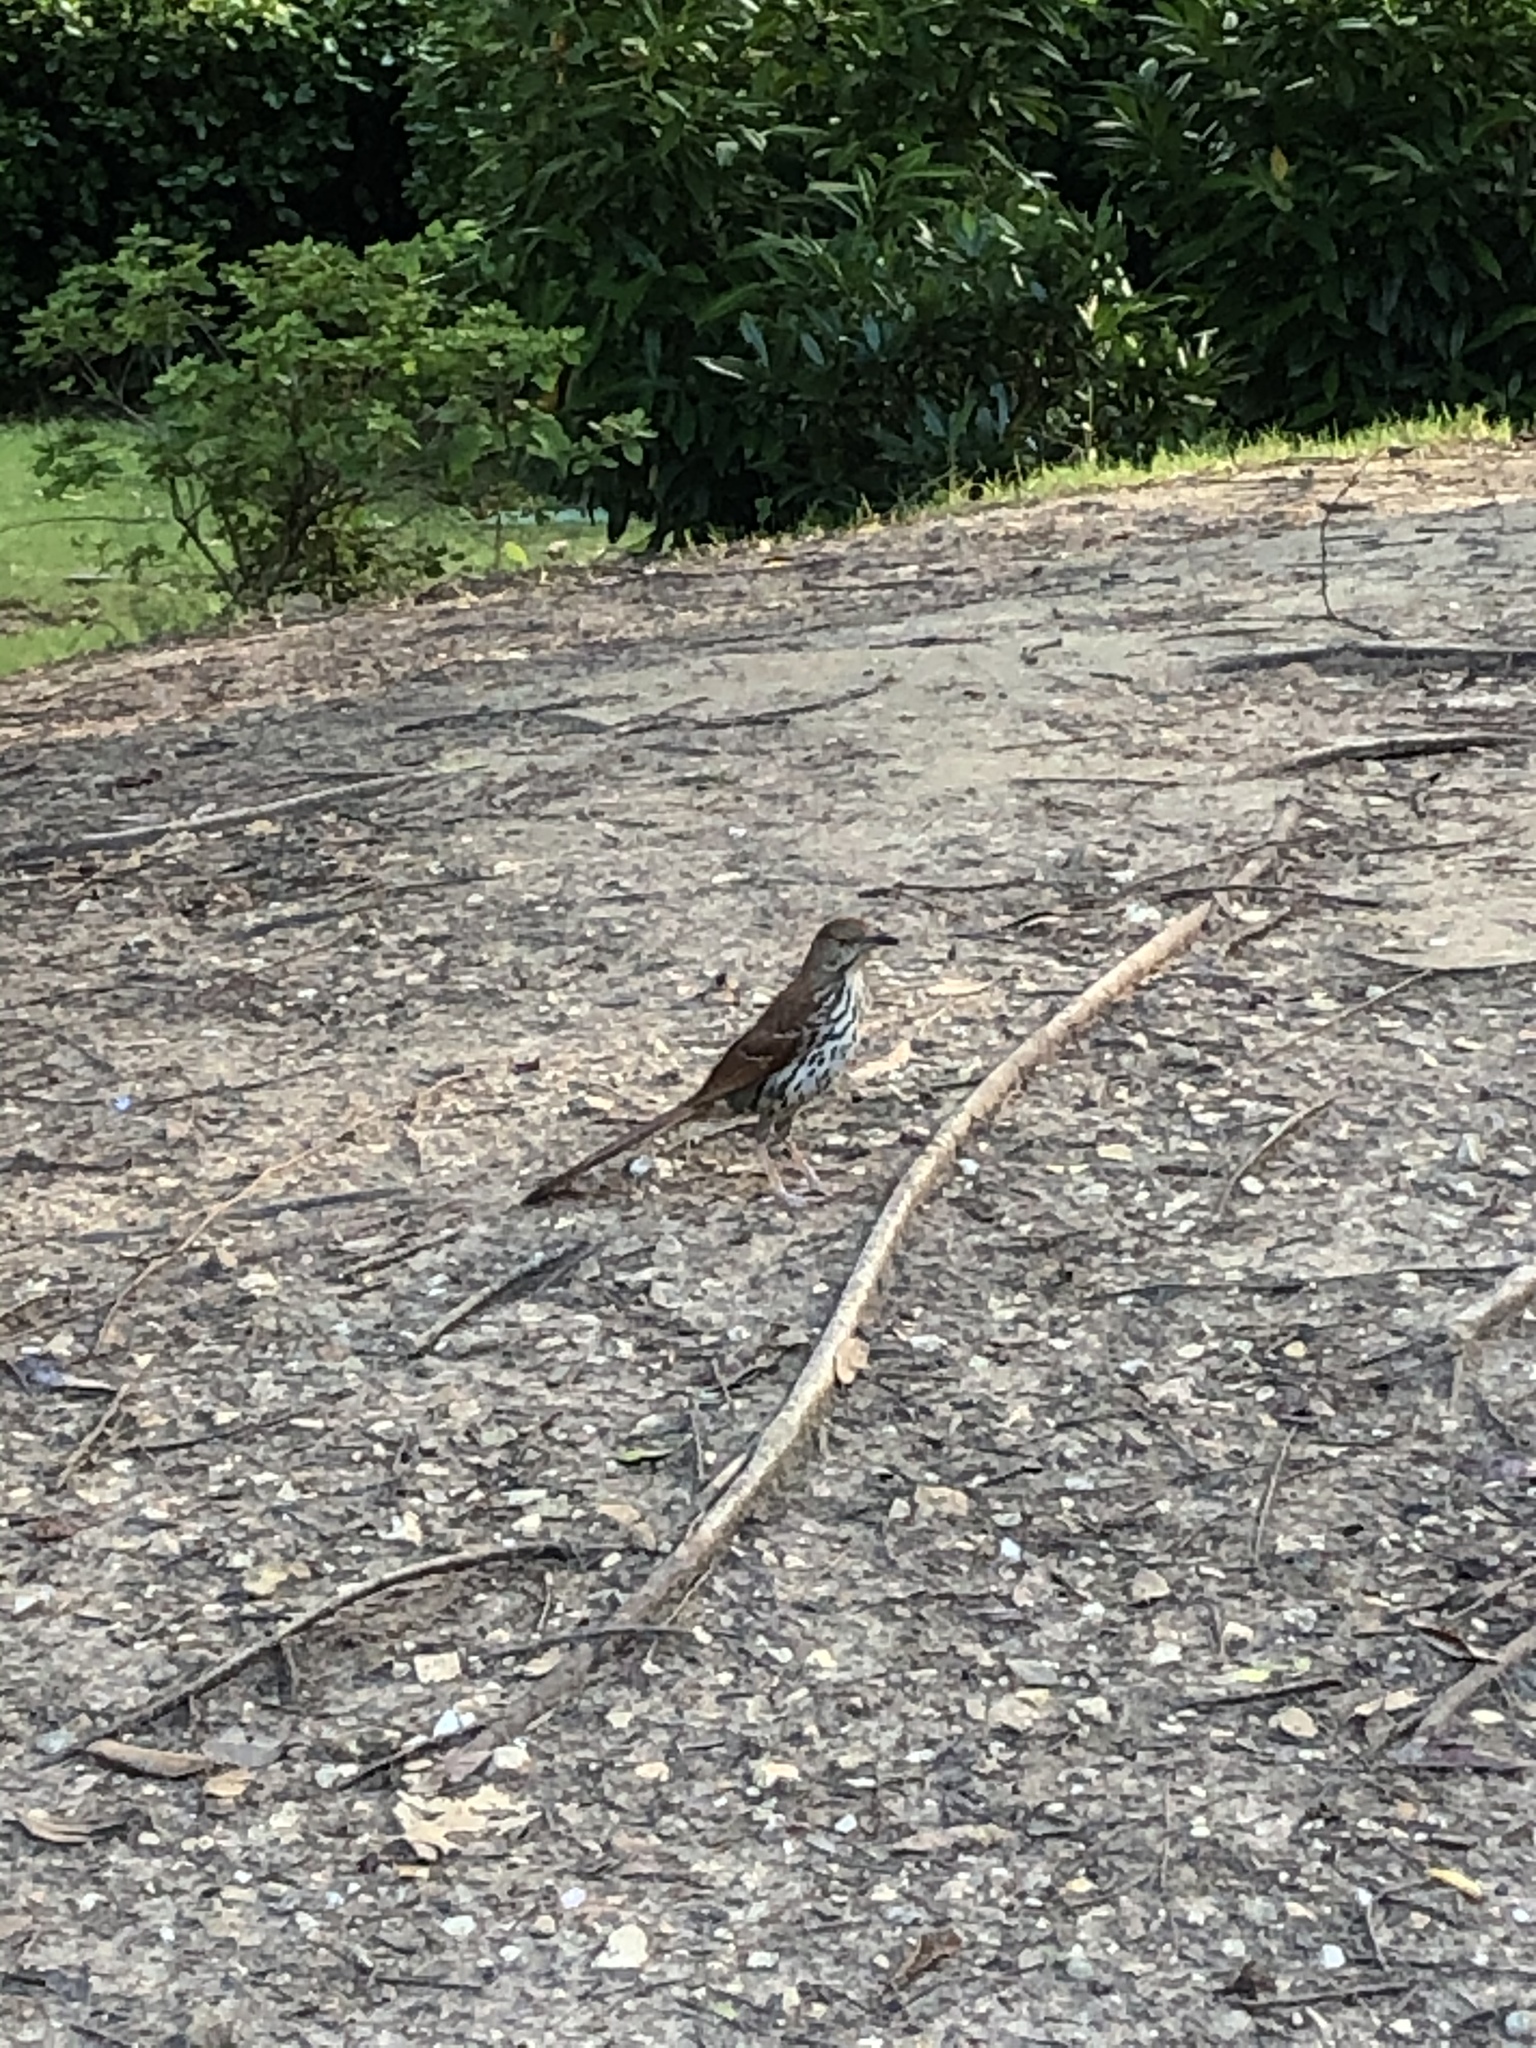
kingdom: Animalia
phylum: Chordata
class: Aves
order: Passeriformes
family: Mimidae
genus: Toxostoma
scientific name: Toxostoma rufum
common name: Brown thrasher
